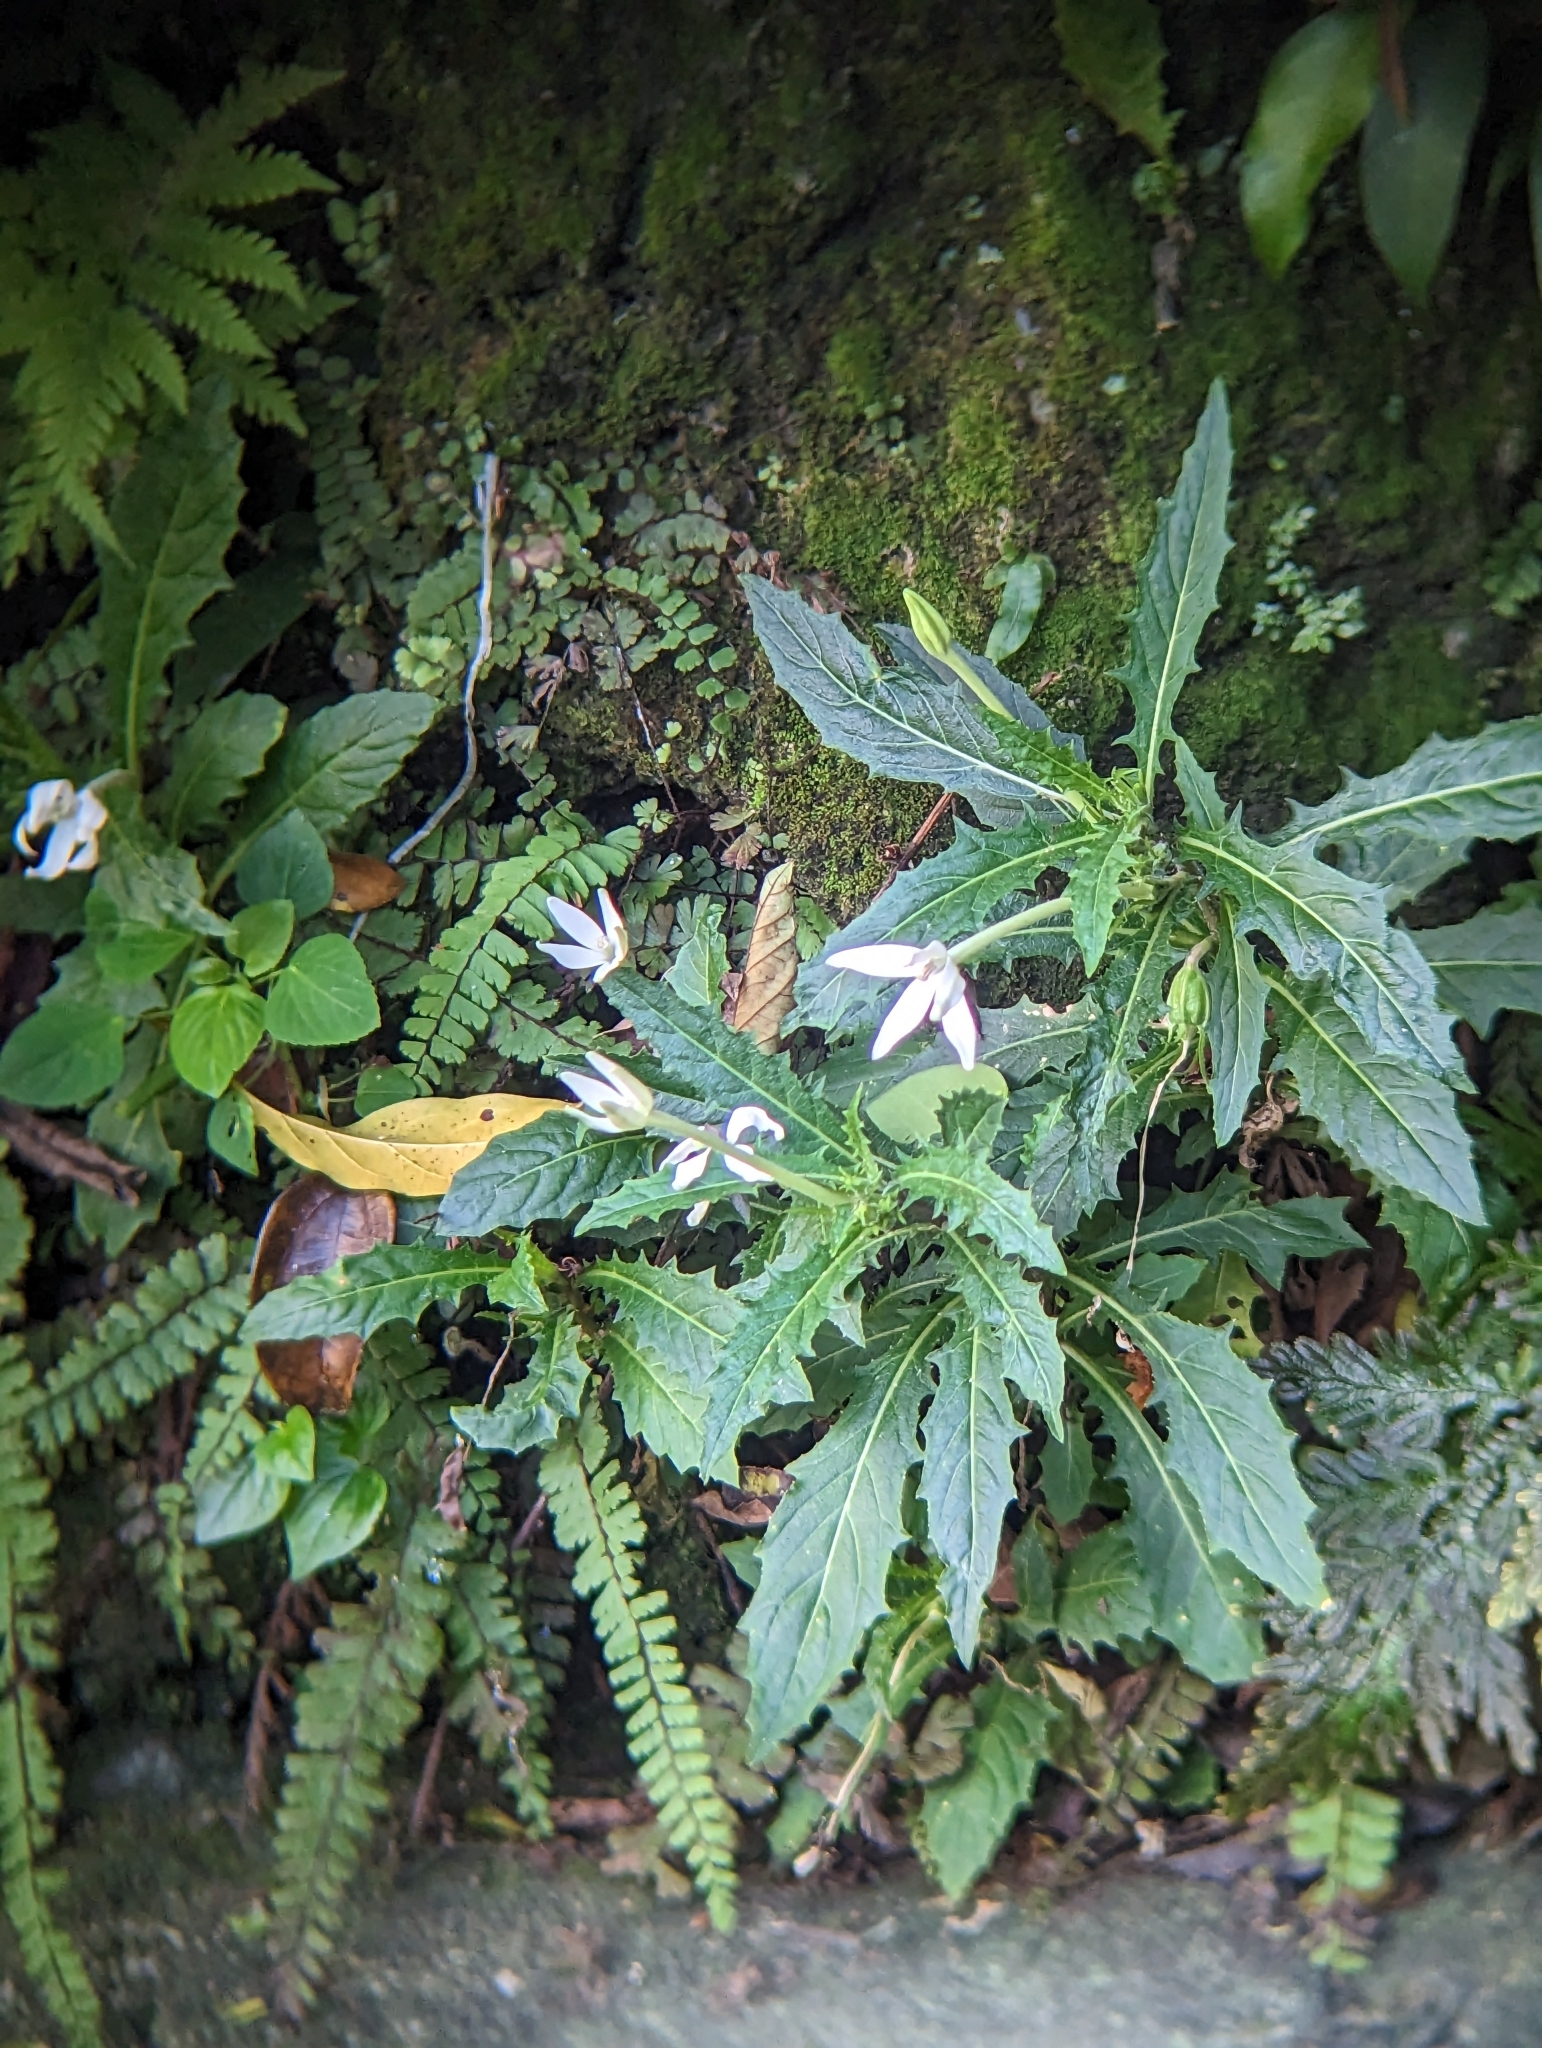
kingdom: Plantae
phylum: Tracheophyta
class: Magnoliopsida
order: Asterales
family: Campanulaceae
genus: Hippobroma
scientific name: Hippobroma longiflora
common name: Madamfate
